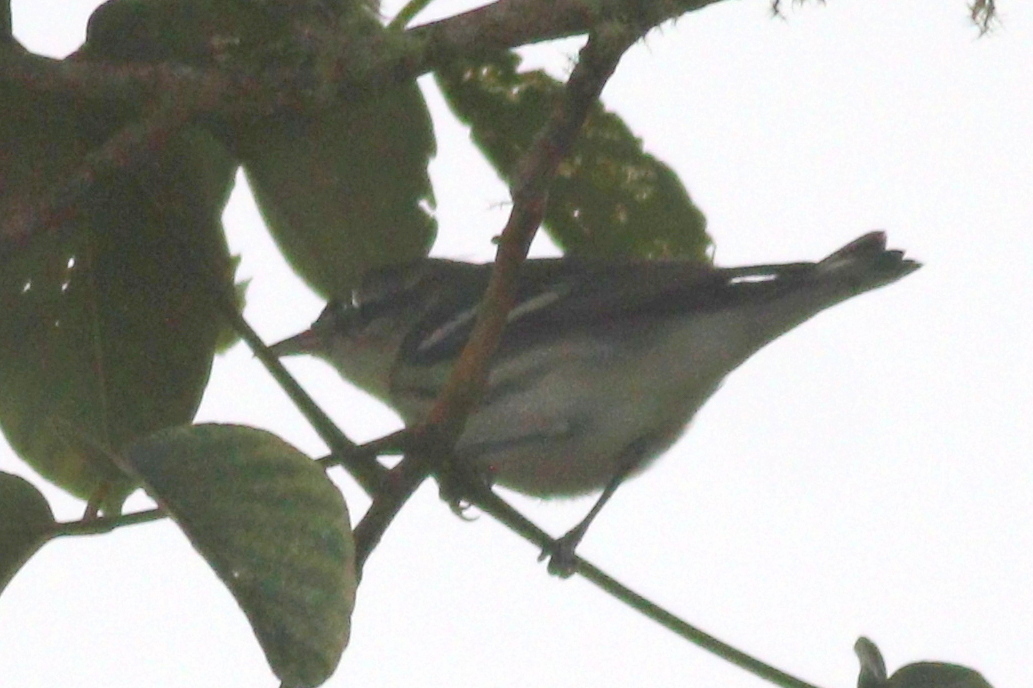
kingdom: Animalia
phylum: Chordata
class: Aves
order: Passeriformes
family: Parulidae
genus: Setophaga
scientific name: Setophaga cerulea
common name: Cerulean warbler
